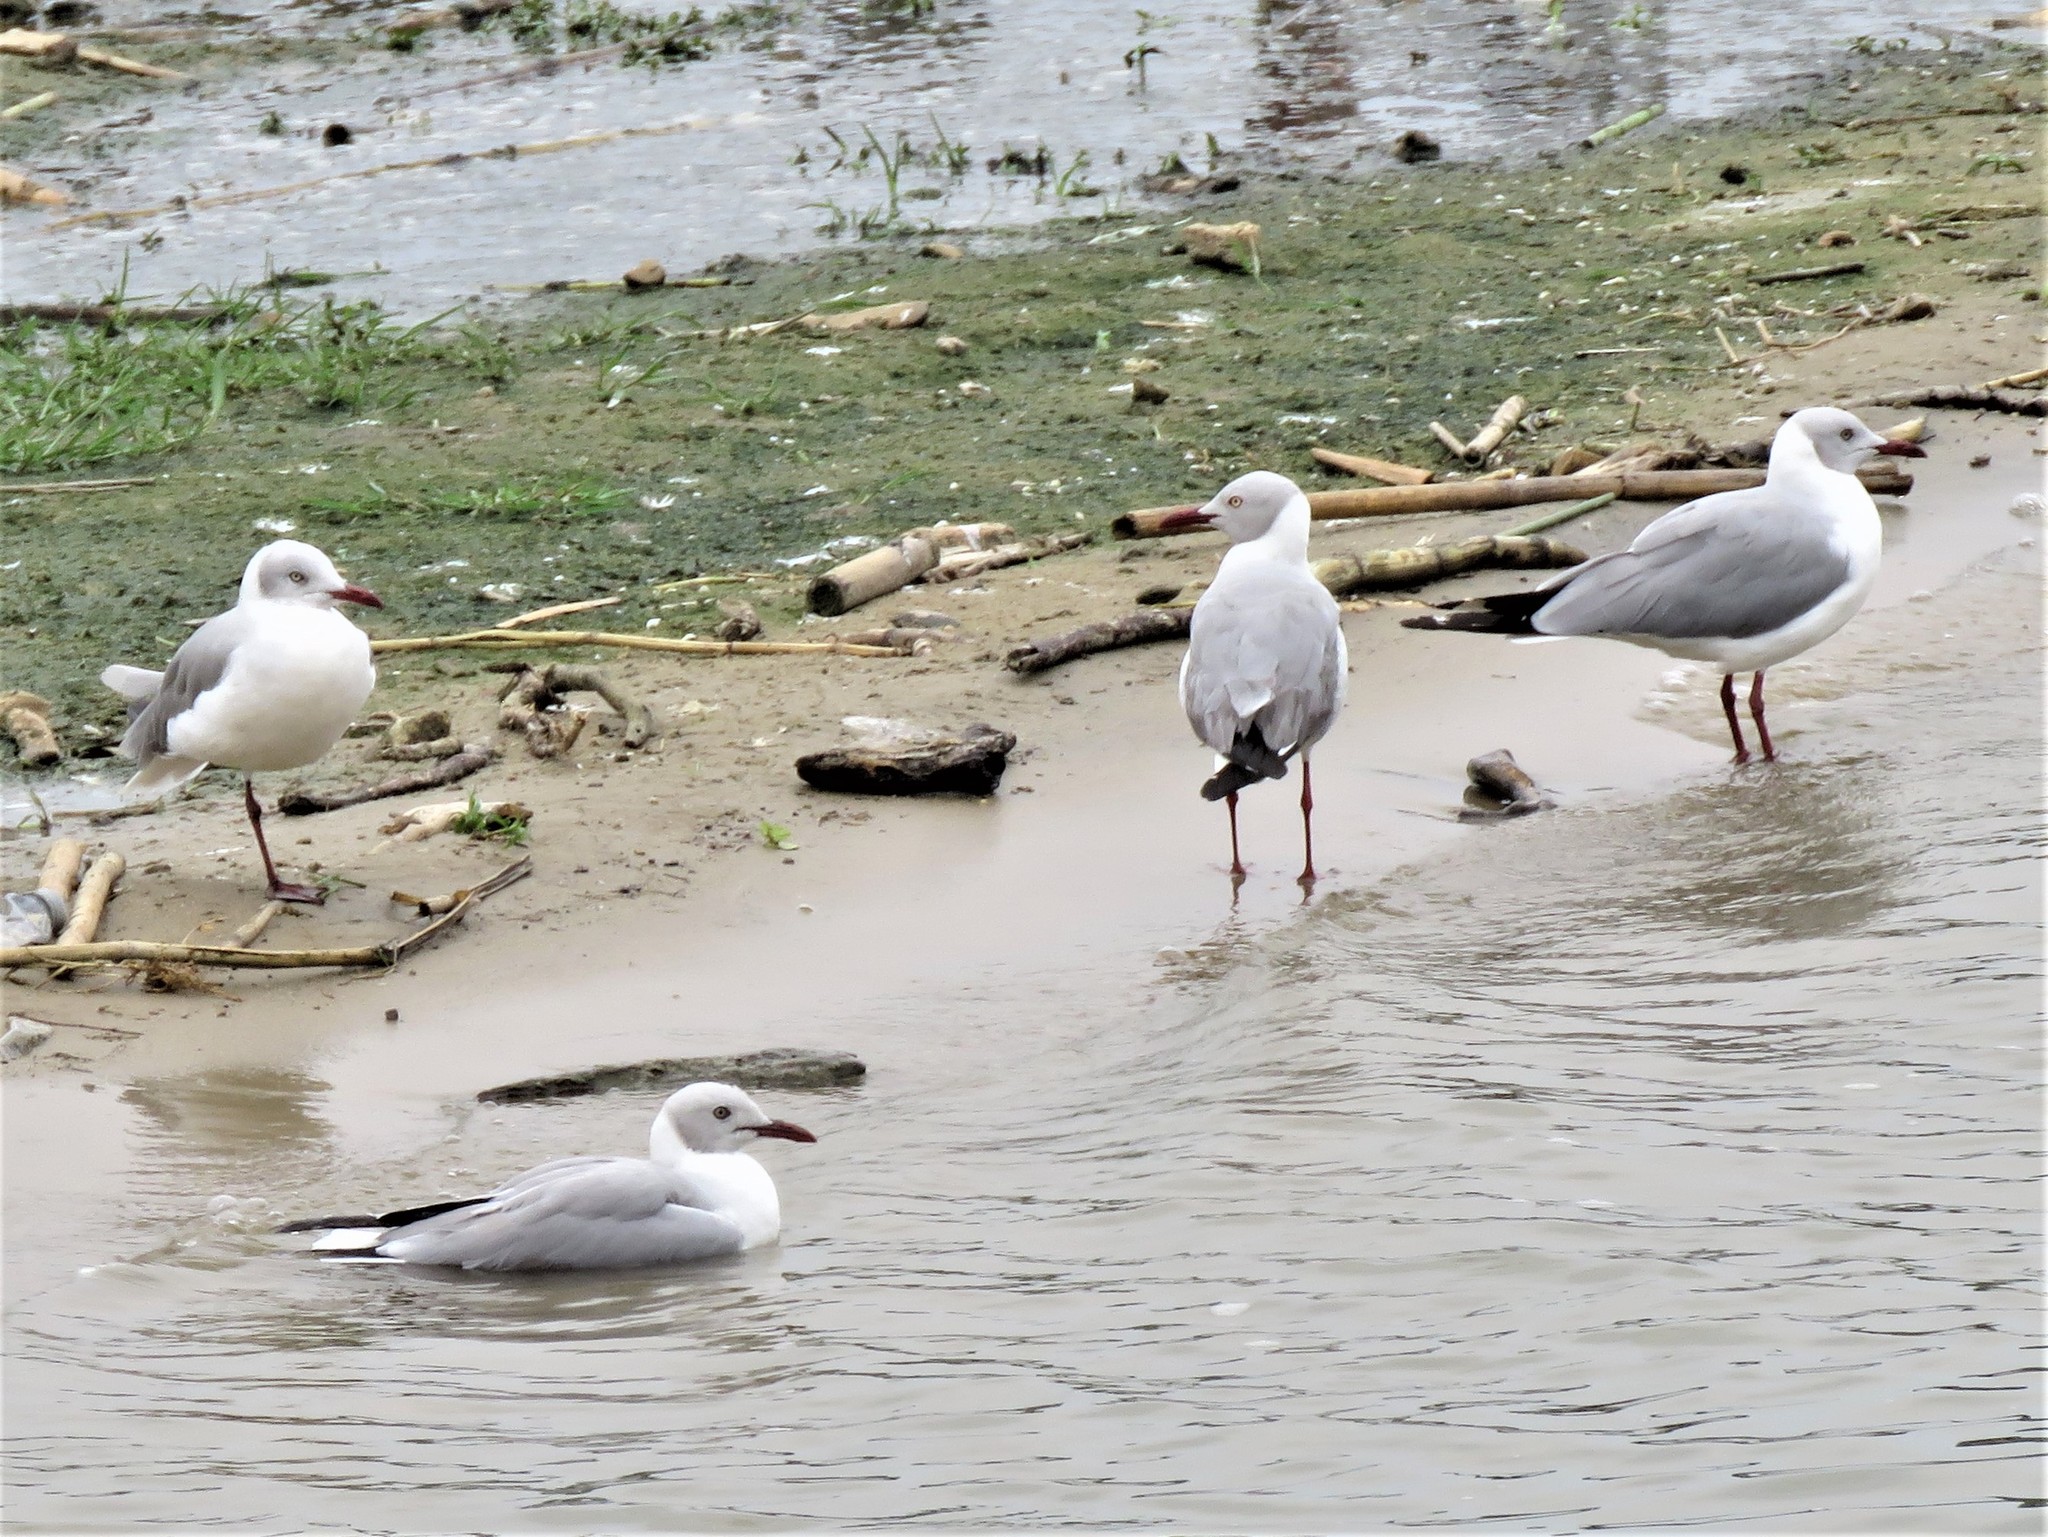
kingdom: Animalia
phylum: Chordata
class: Aves
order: Charadriiformes
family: Laridae
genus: Chroicocephalus
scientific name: Chroicocephalus cirrocephalus
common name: Grey-headed gull
